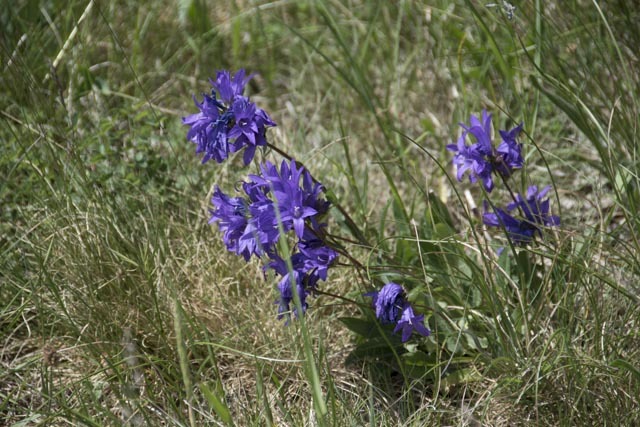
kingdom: Plantae
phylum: Tracheophyta
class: Magnoliopsida
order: Asterales
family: Campanulaceae
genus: Campanula
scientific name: Campanula glomerata
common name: Clustered bellflower
